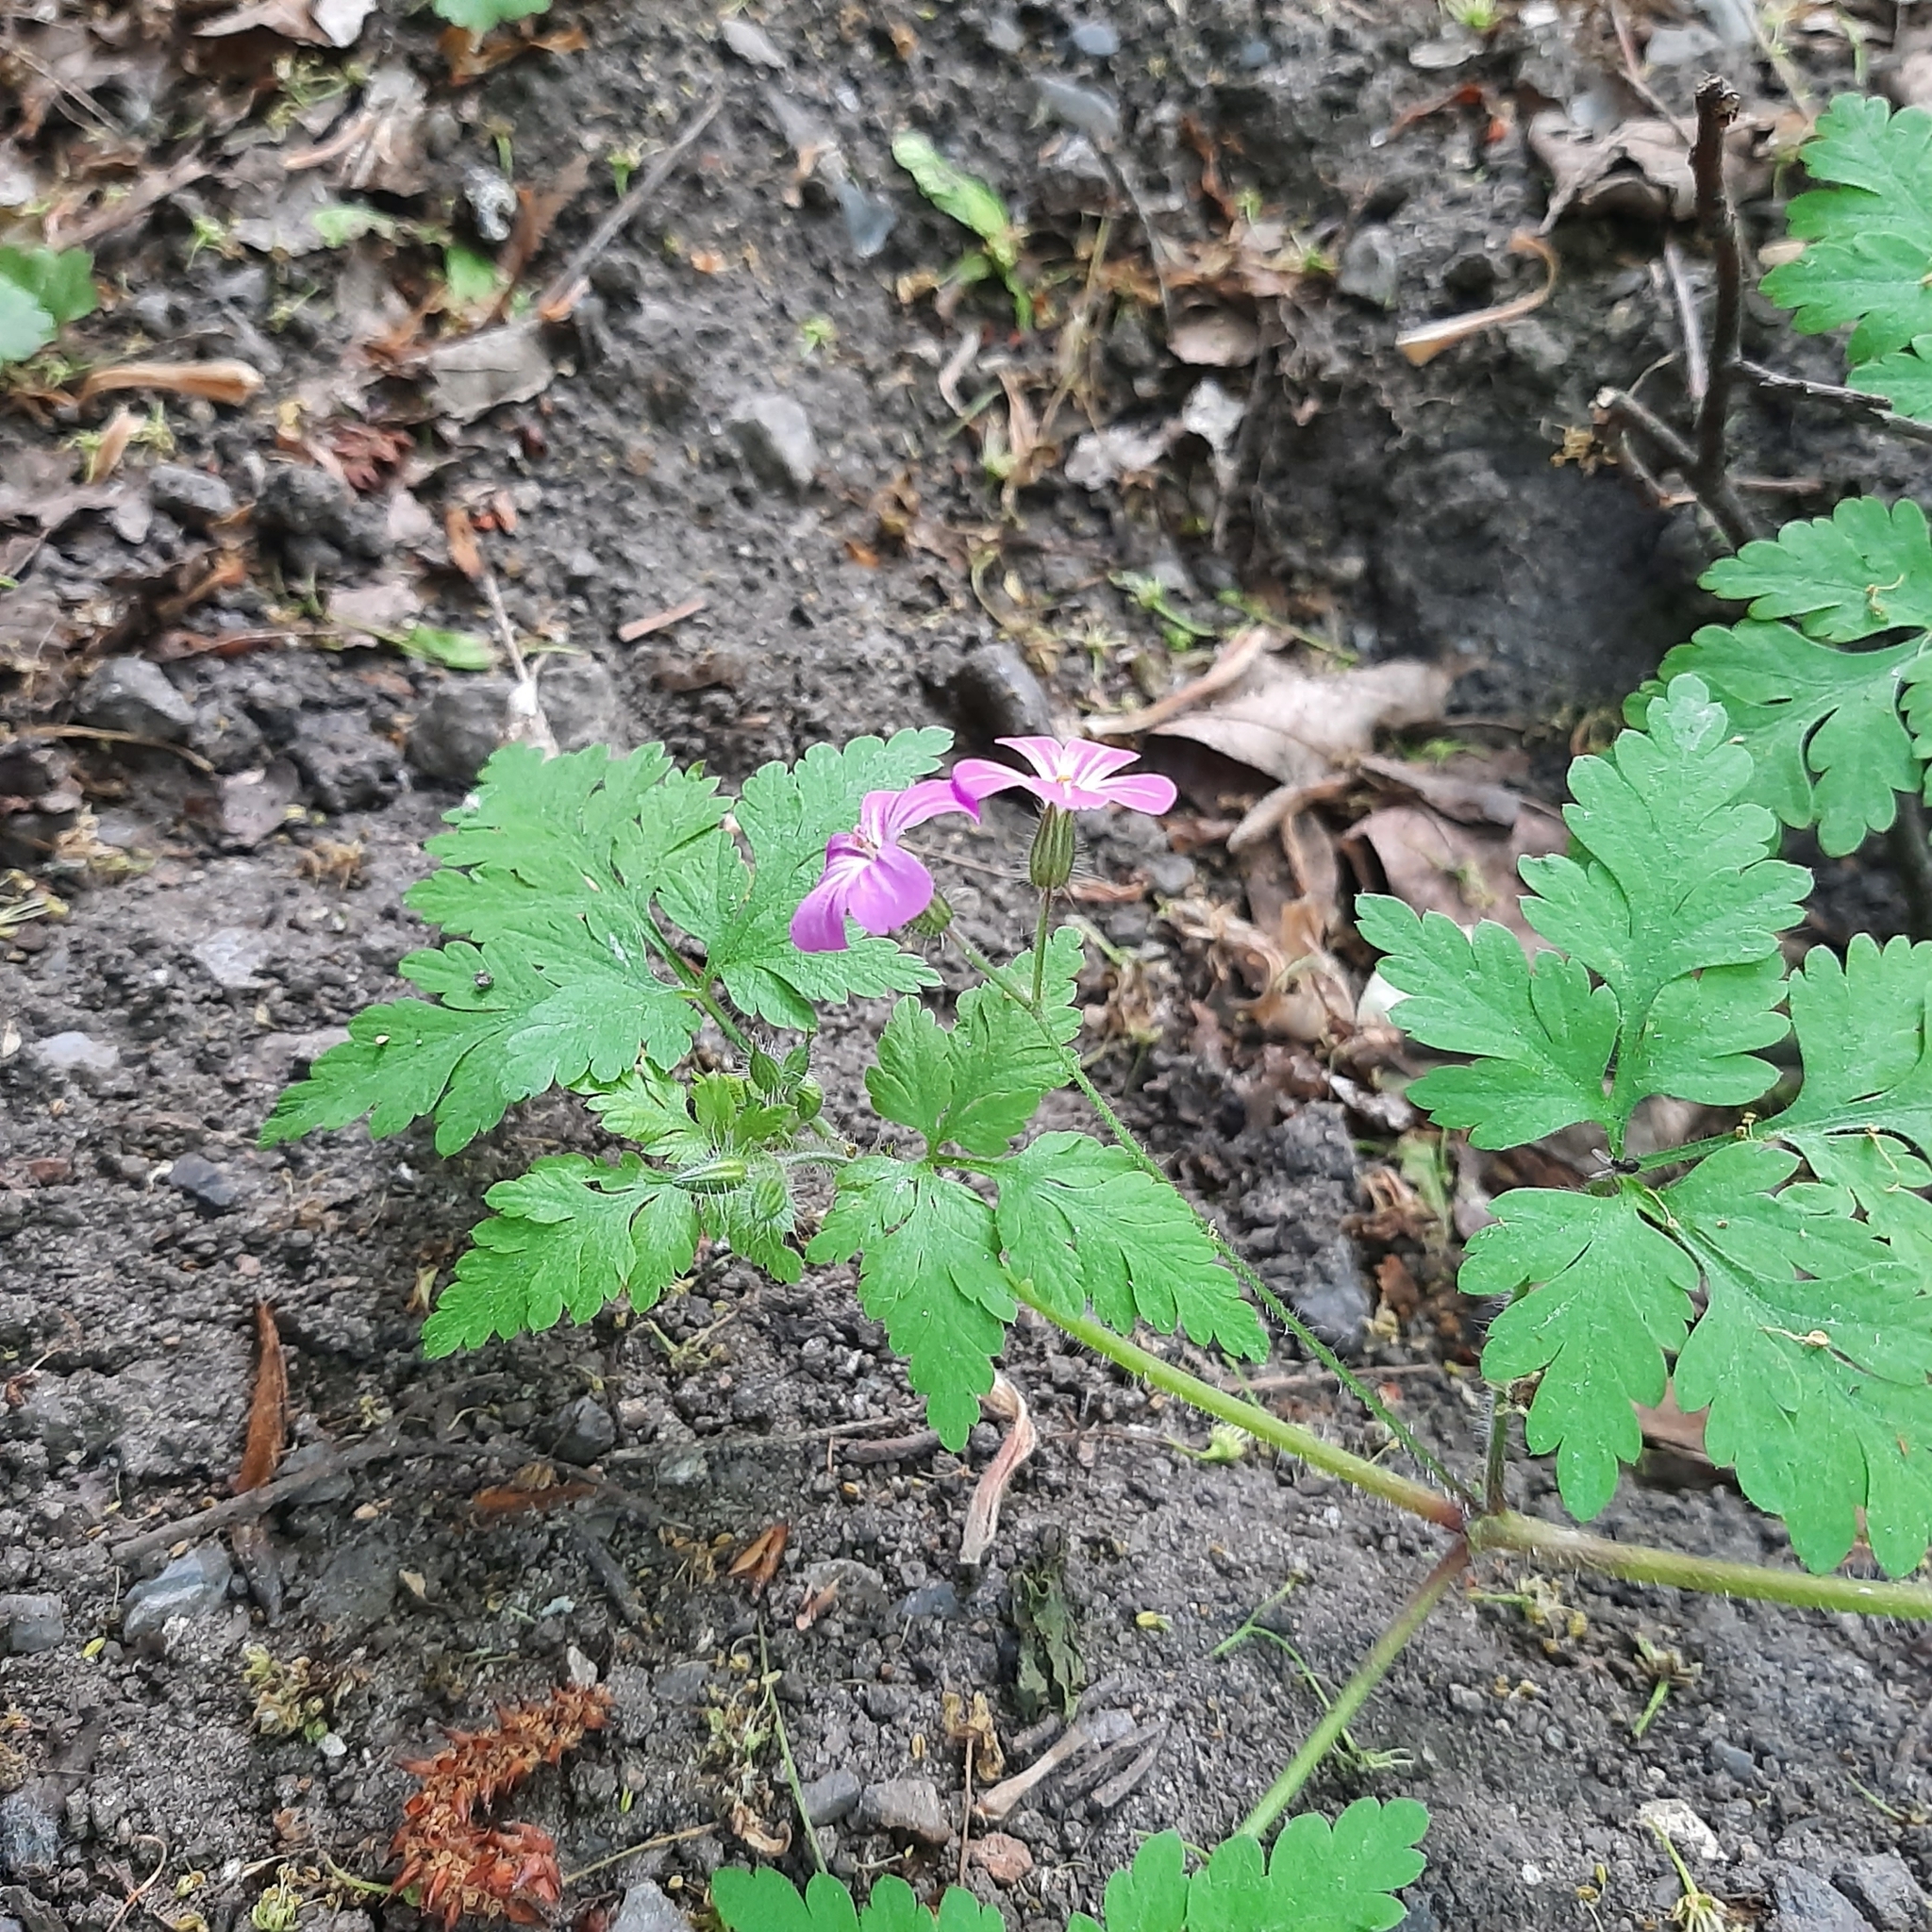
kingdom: Plantae
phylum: Tracheophyta
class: Magnoliopsida
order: Geraniales
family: Geraniaceae
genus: Geranium
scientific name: Geranium robertianum
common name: Herb-robert
